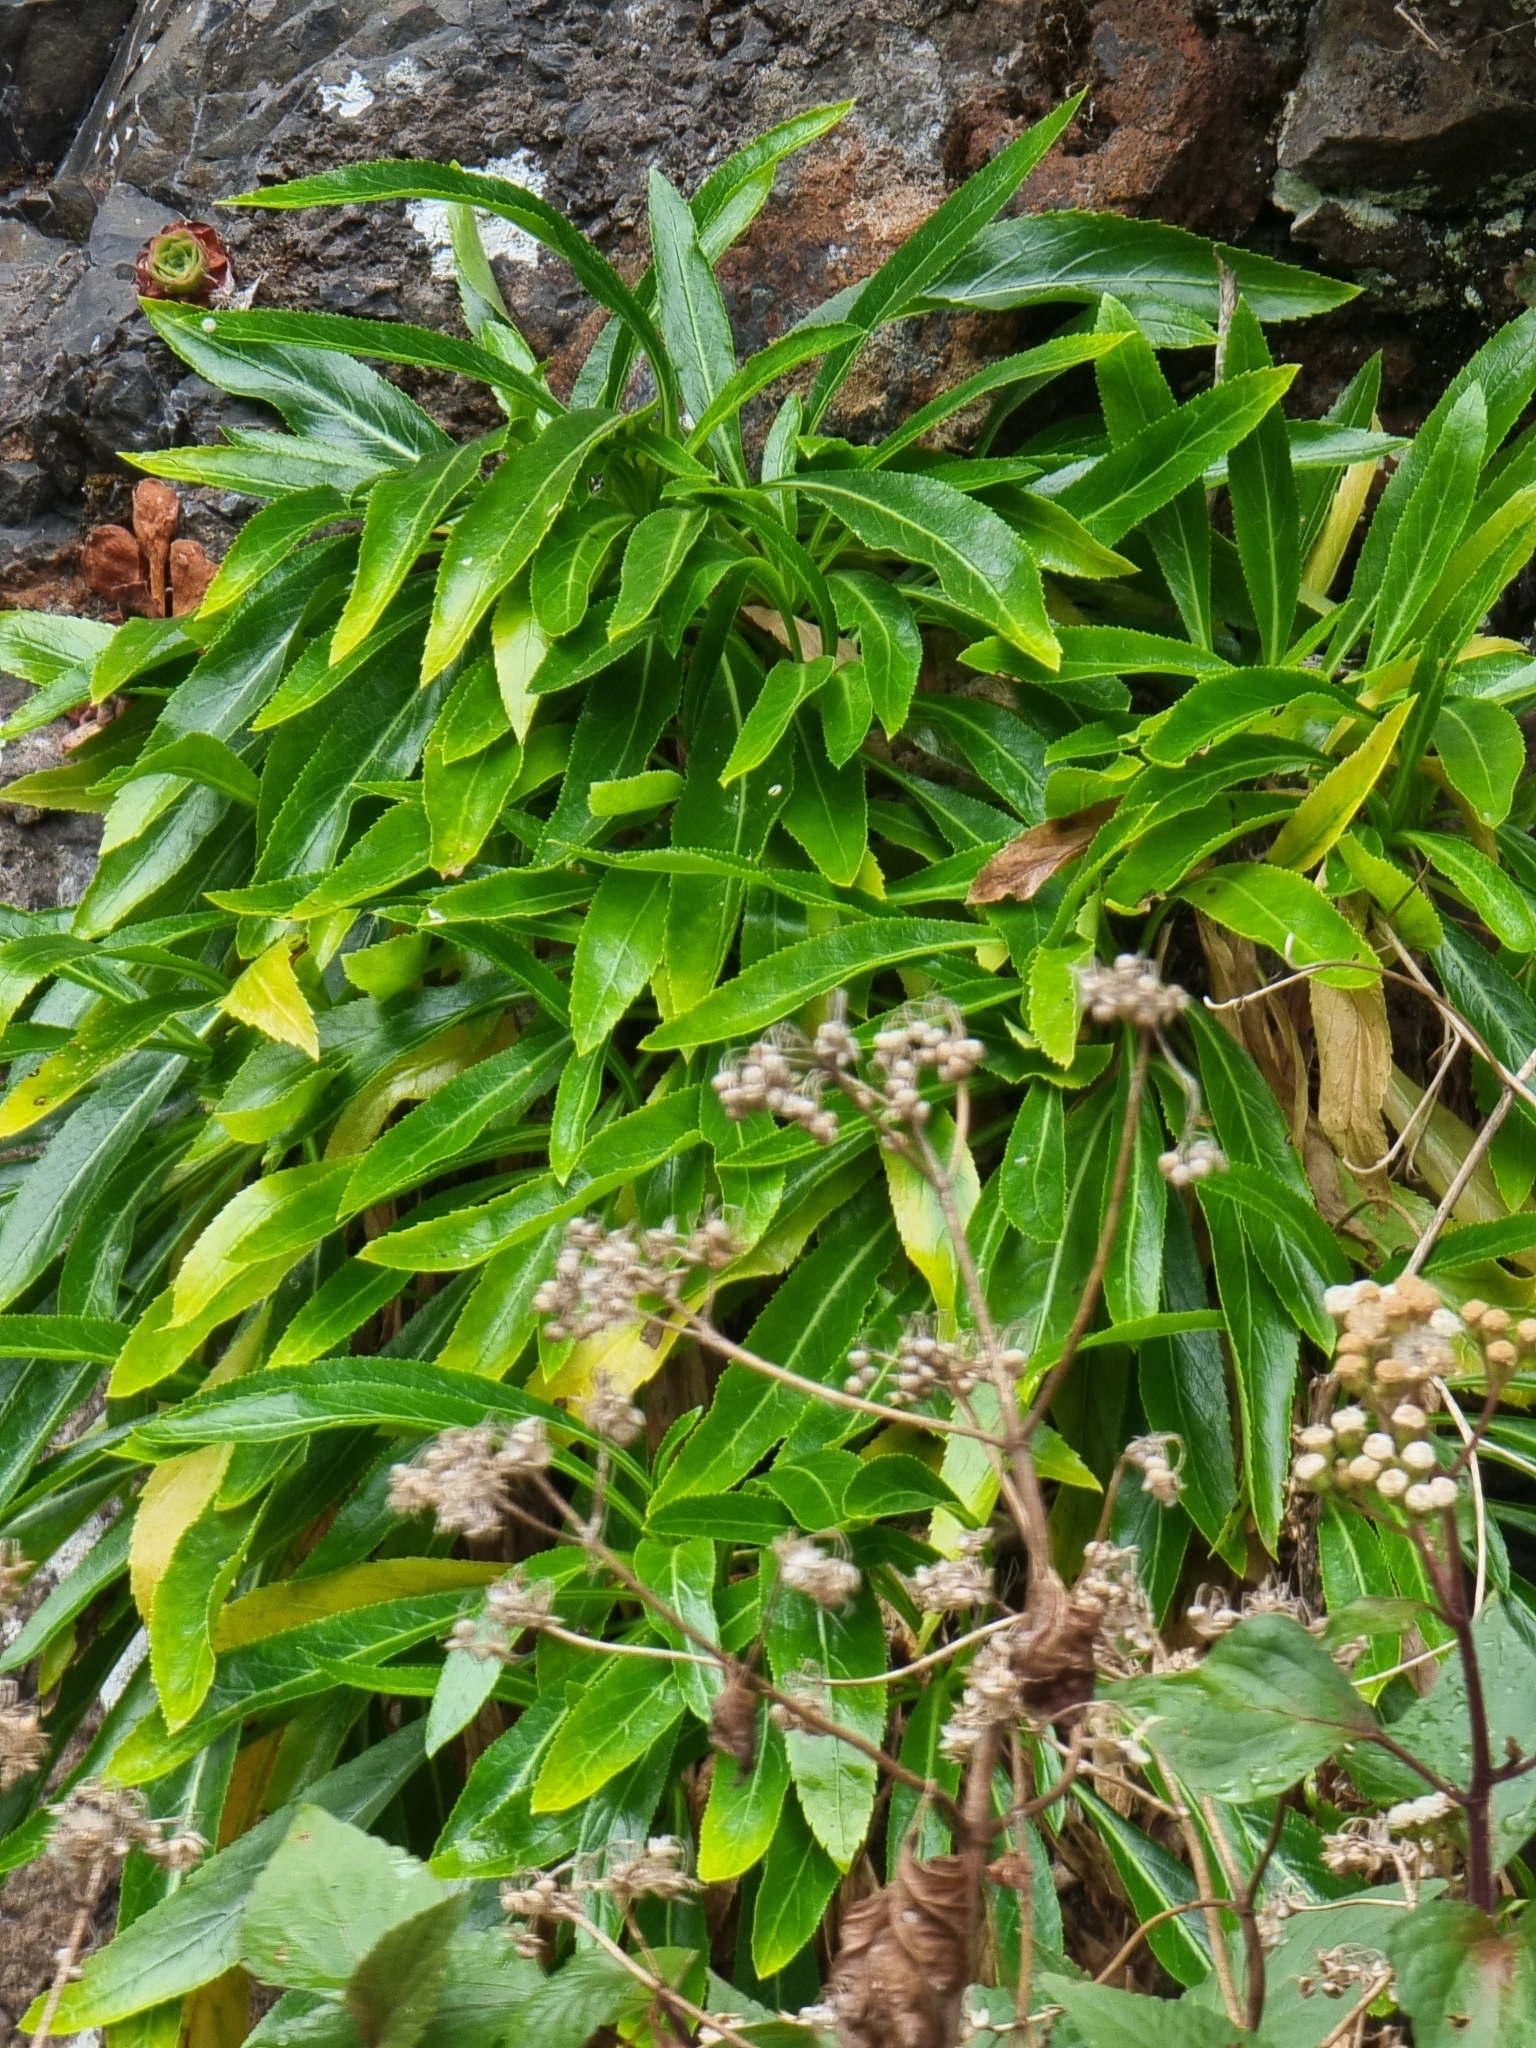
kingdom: Plantae
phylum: Tracheophyta
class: Magnoliopsida
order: Asterales
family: Campanulaceae
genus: Musschia
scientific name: Musschia aurea
